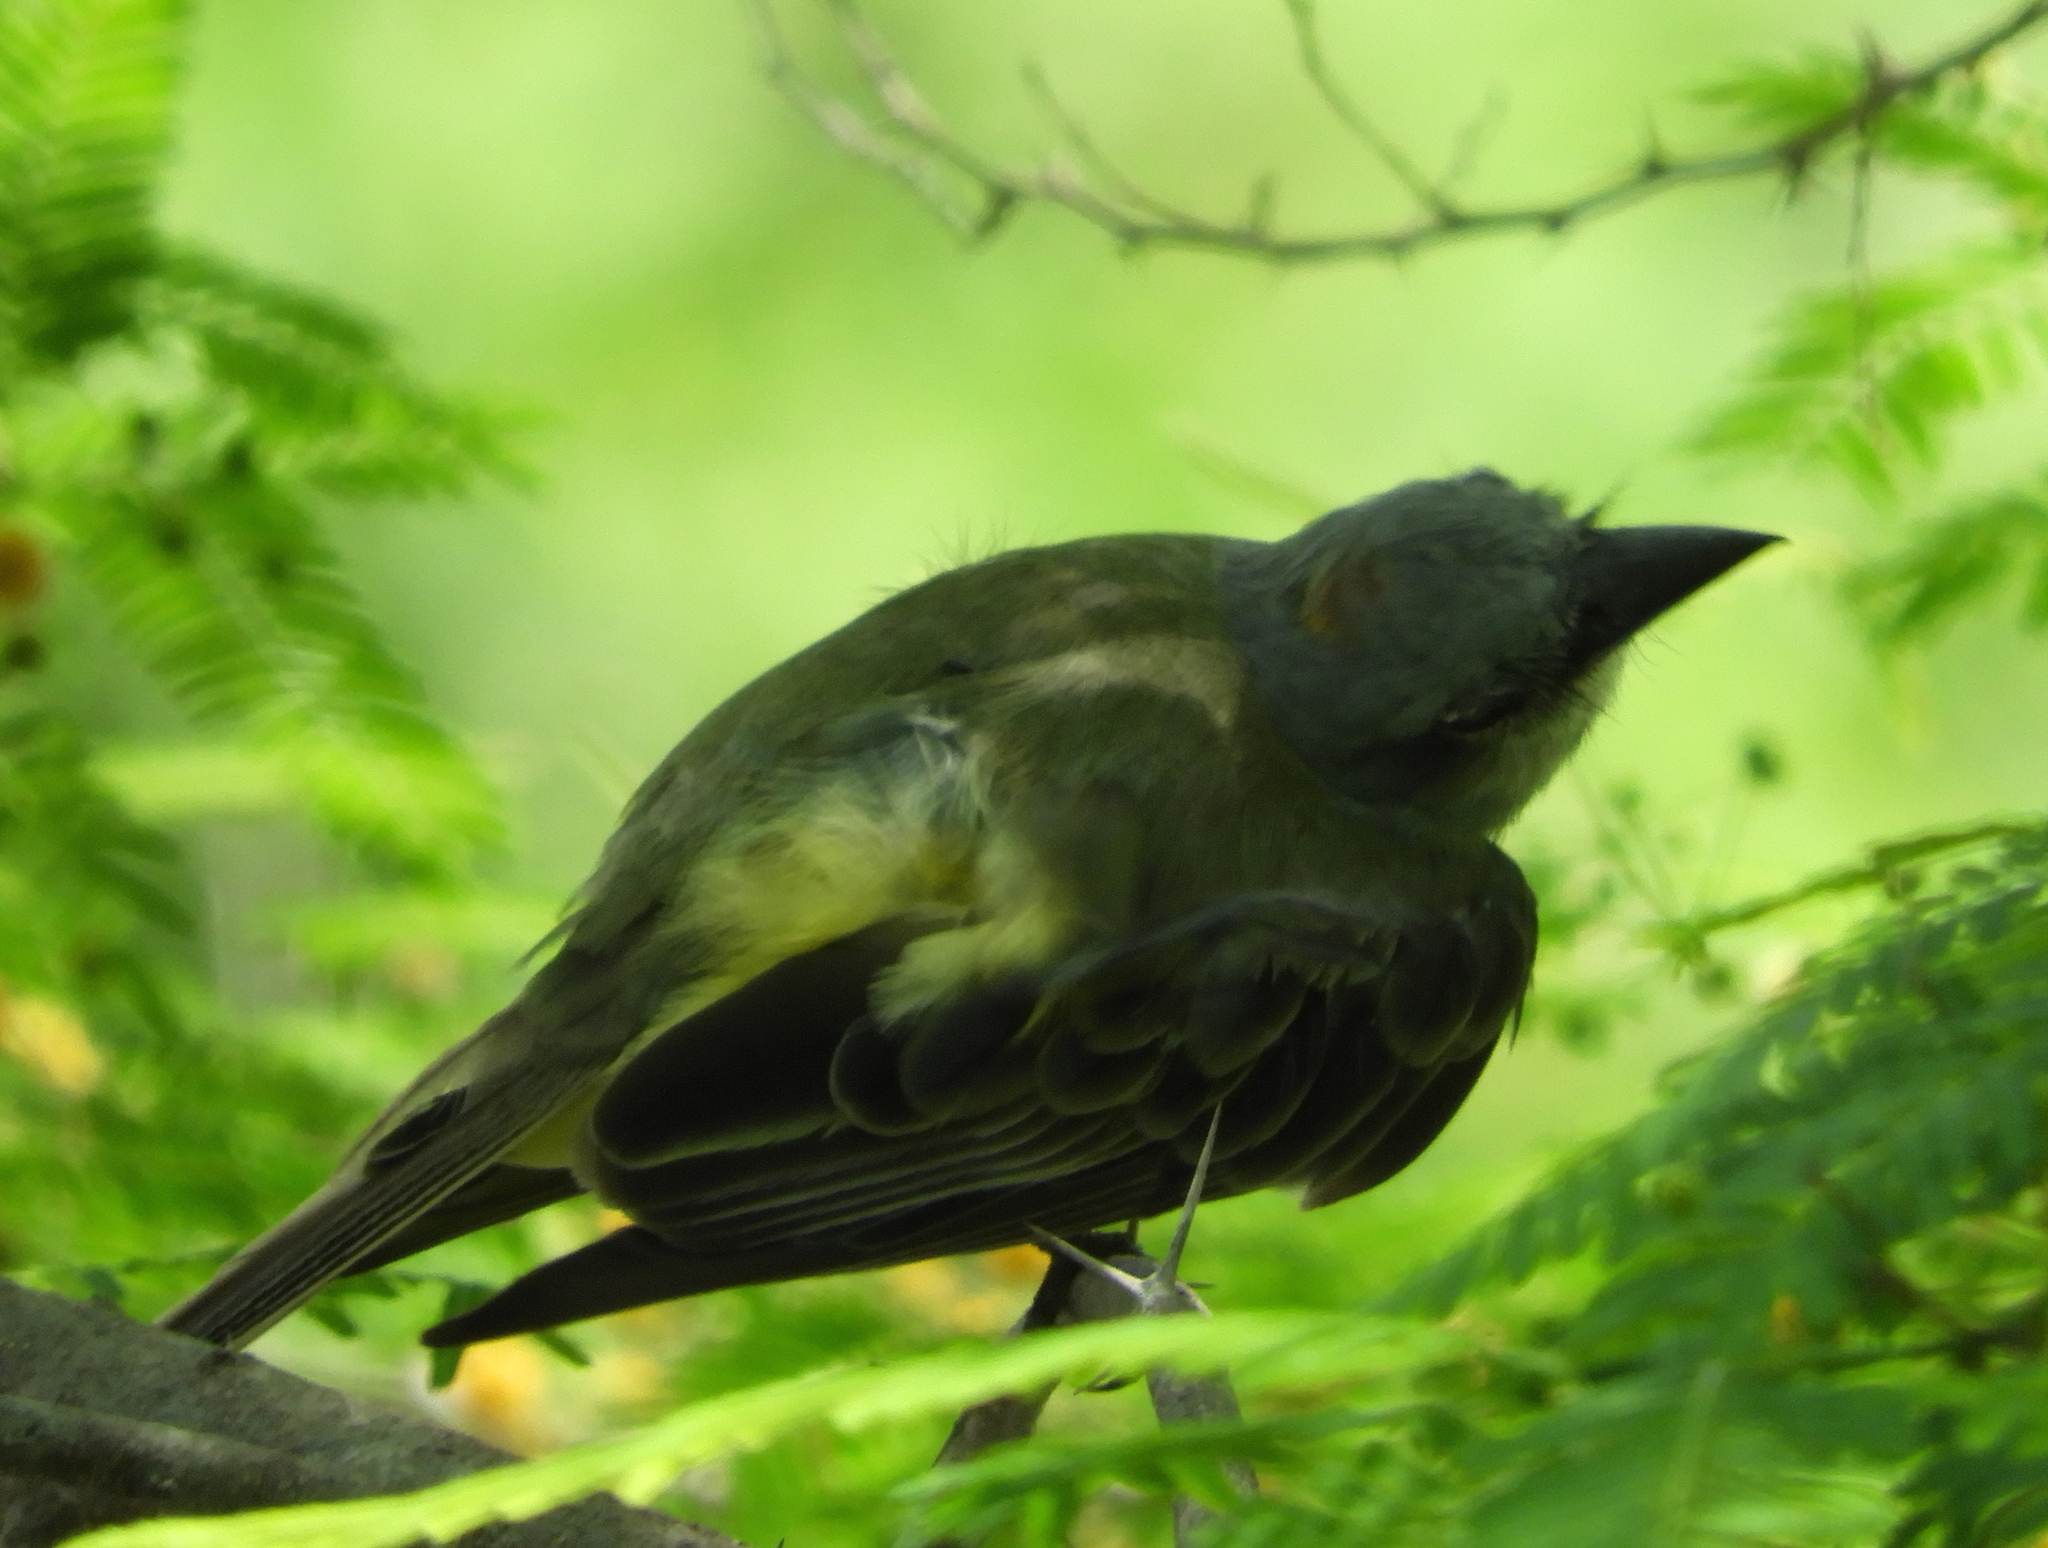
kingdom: Animalia
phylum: Chordata
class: Aves
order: Passeriformes
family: Tyrannidae
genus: Tyrannus
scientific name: Tyrannus melancholicus
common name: Tropical kingbird
